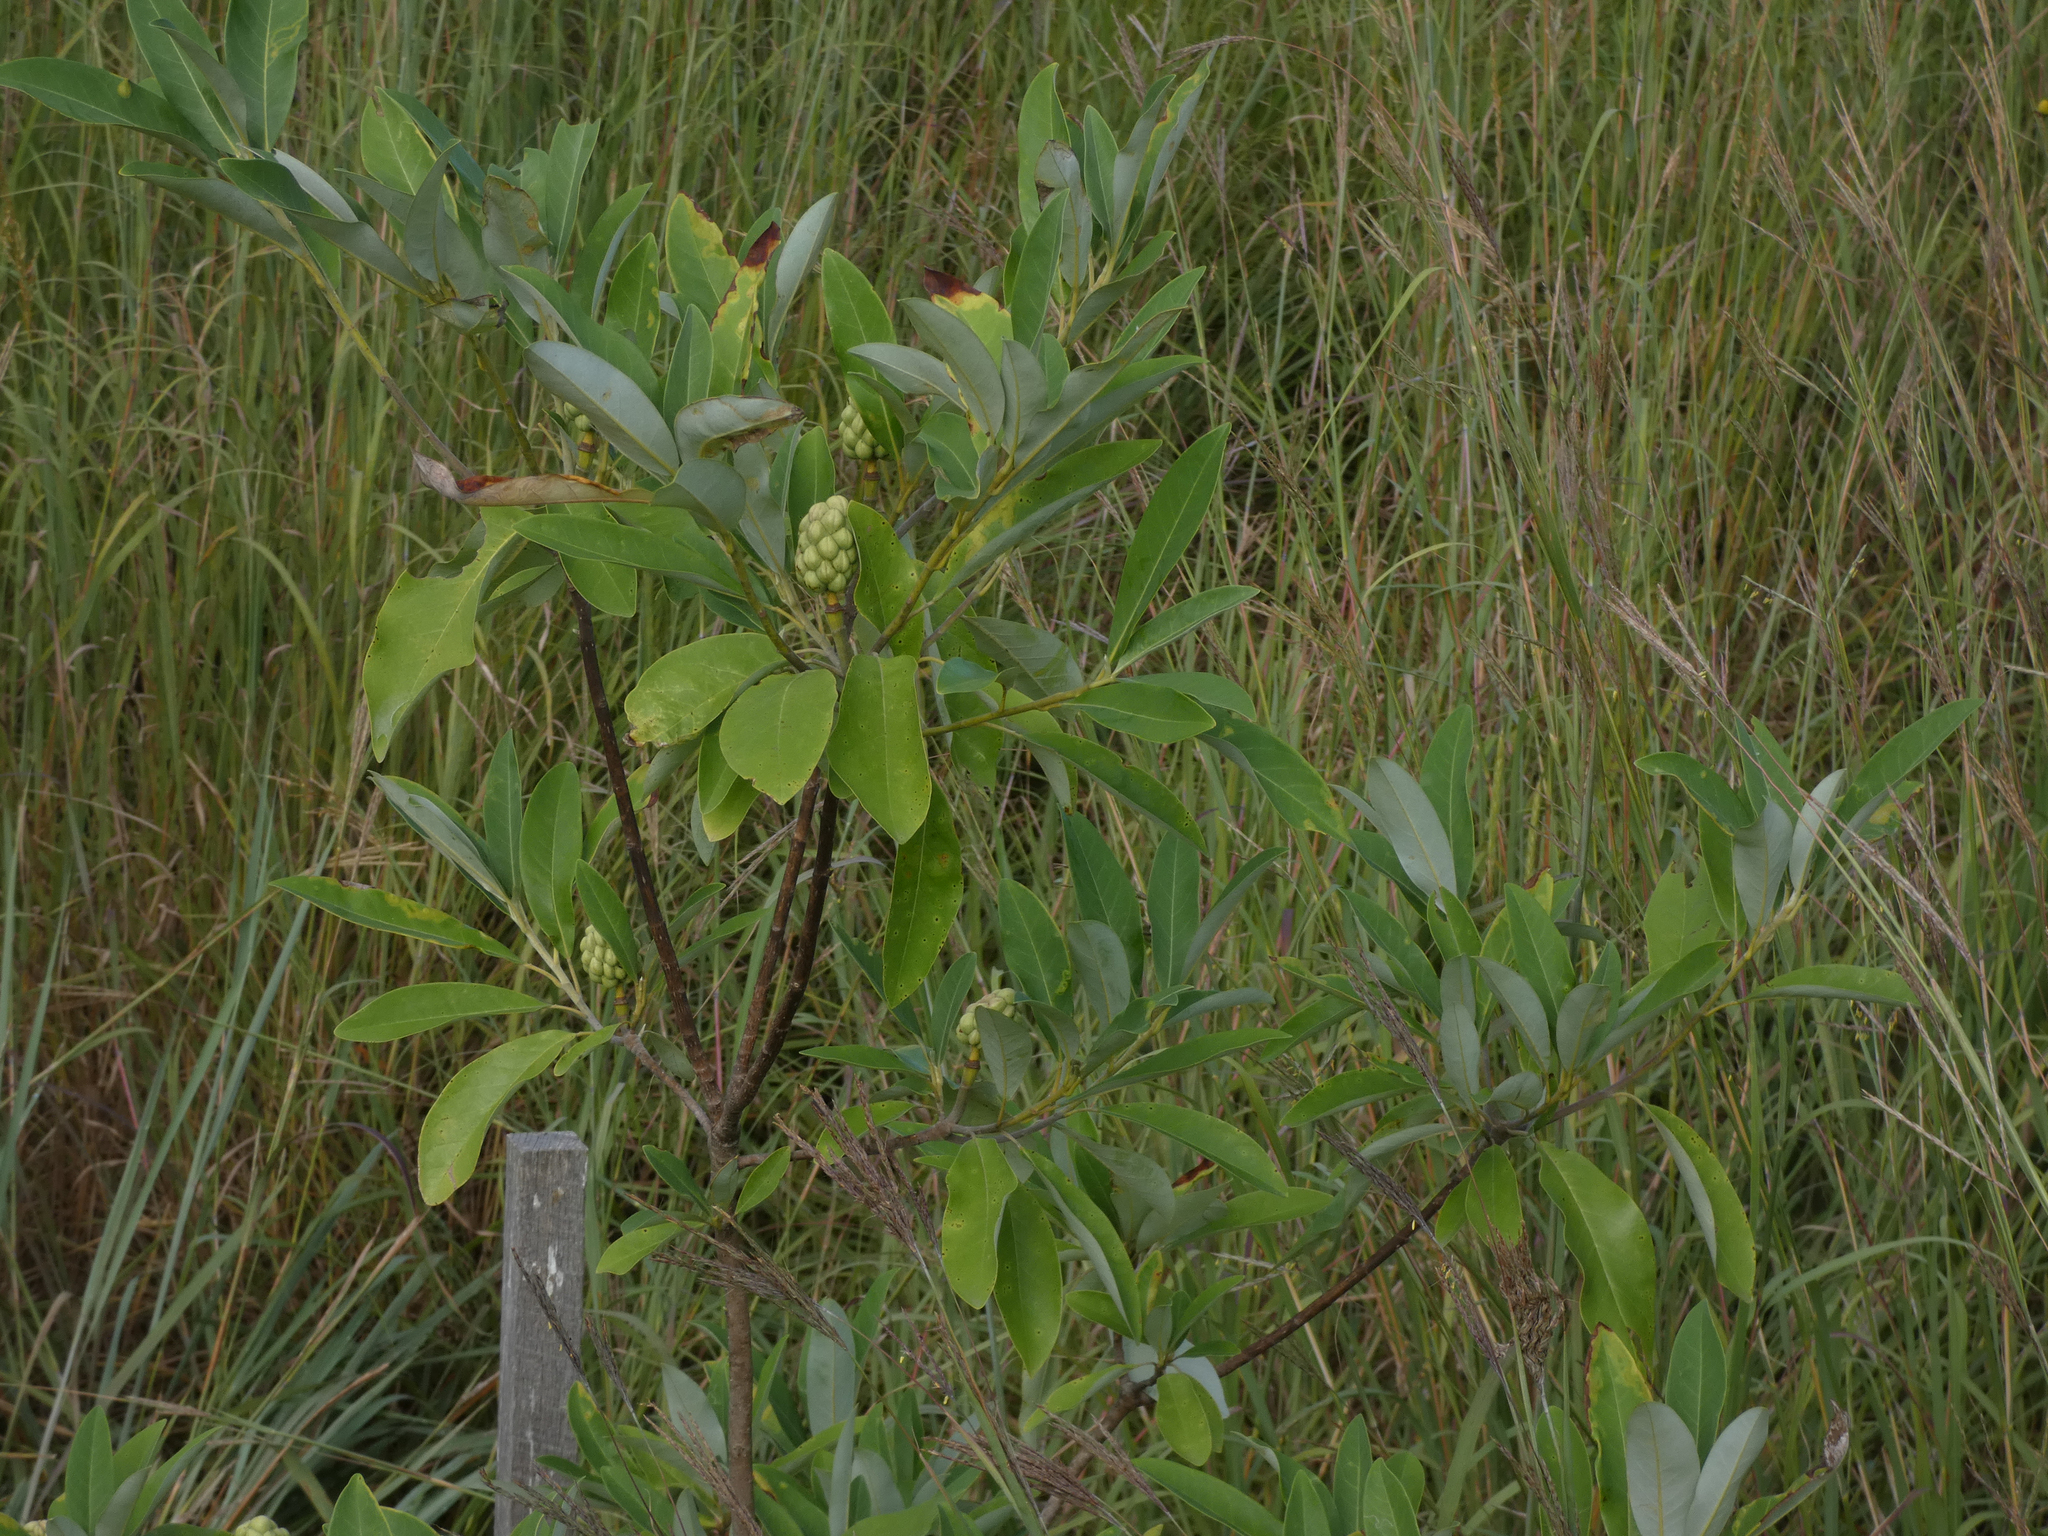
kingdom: Plantae
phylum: Tracheophyta
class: Magnoliopsida
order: Magnoliales
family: Magnoliaceae
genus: Magnolia
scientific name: Magnolia virginiana
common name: Swamp bay
